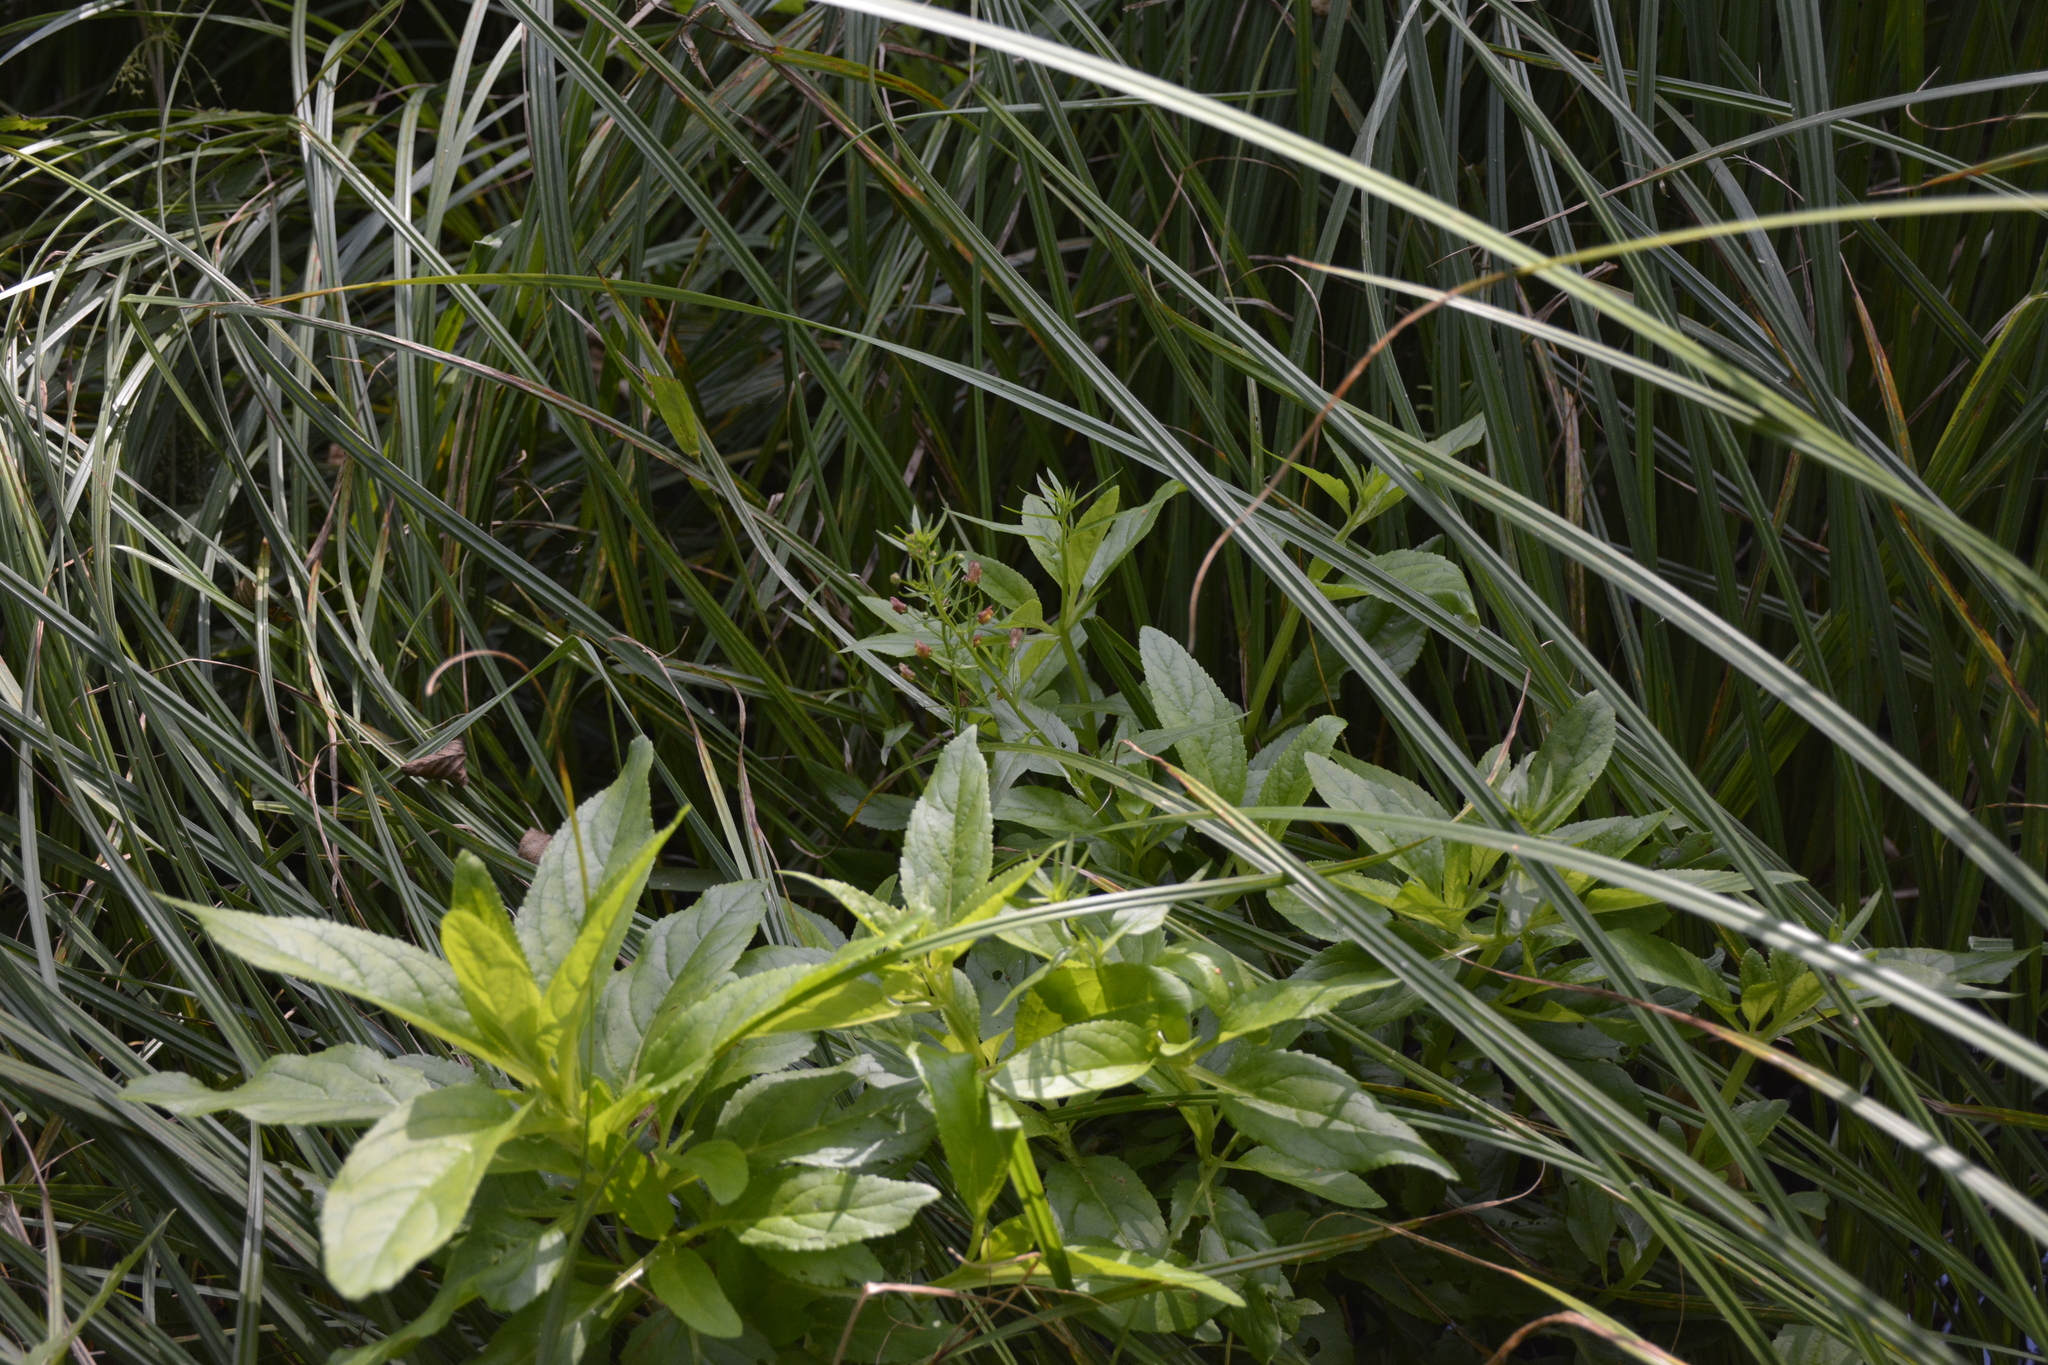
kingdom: Plantae
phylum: Tracheophyta
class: Magnoliopsida
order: Lamiales
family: Scrophulariaceae
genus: Scrophularia
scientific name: Scrophularia umbrosa
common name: Green figwort
